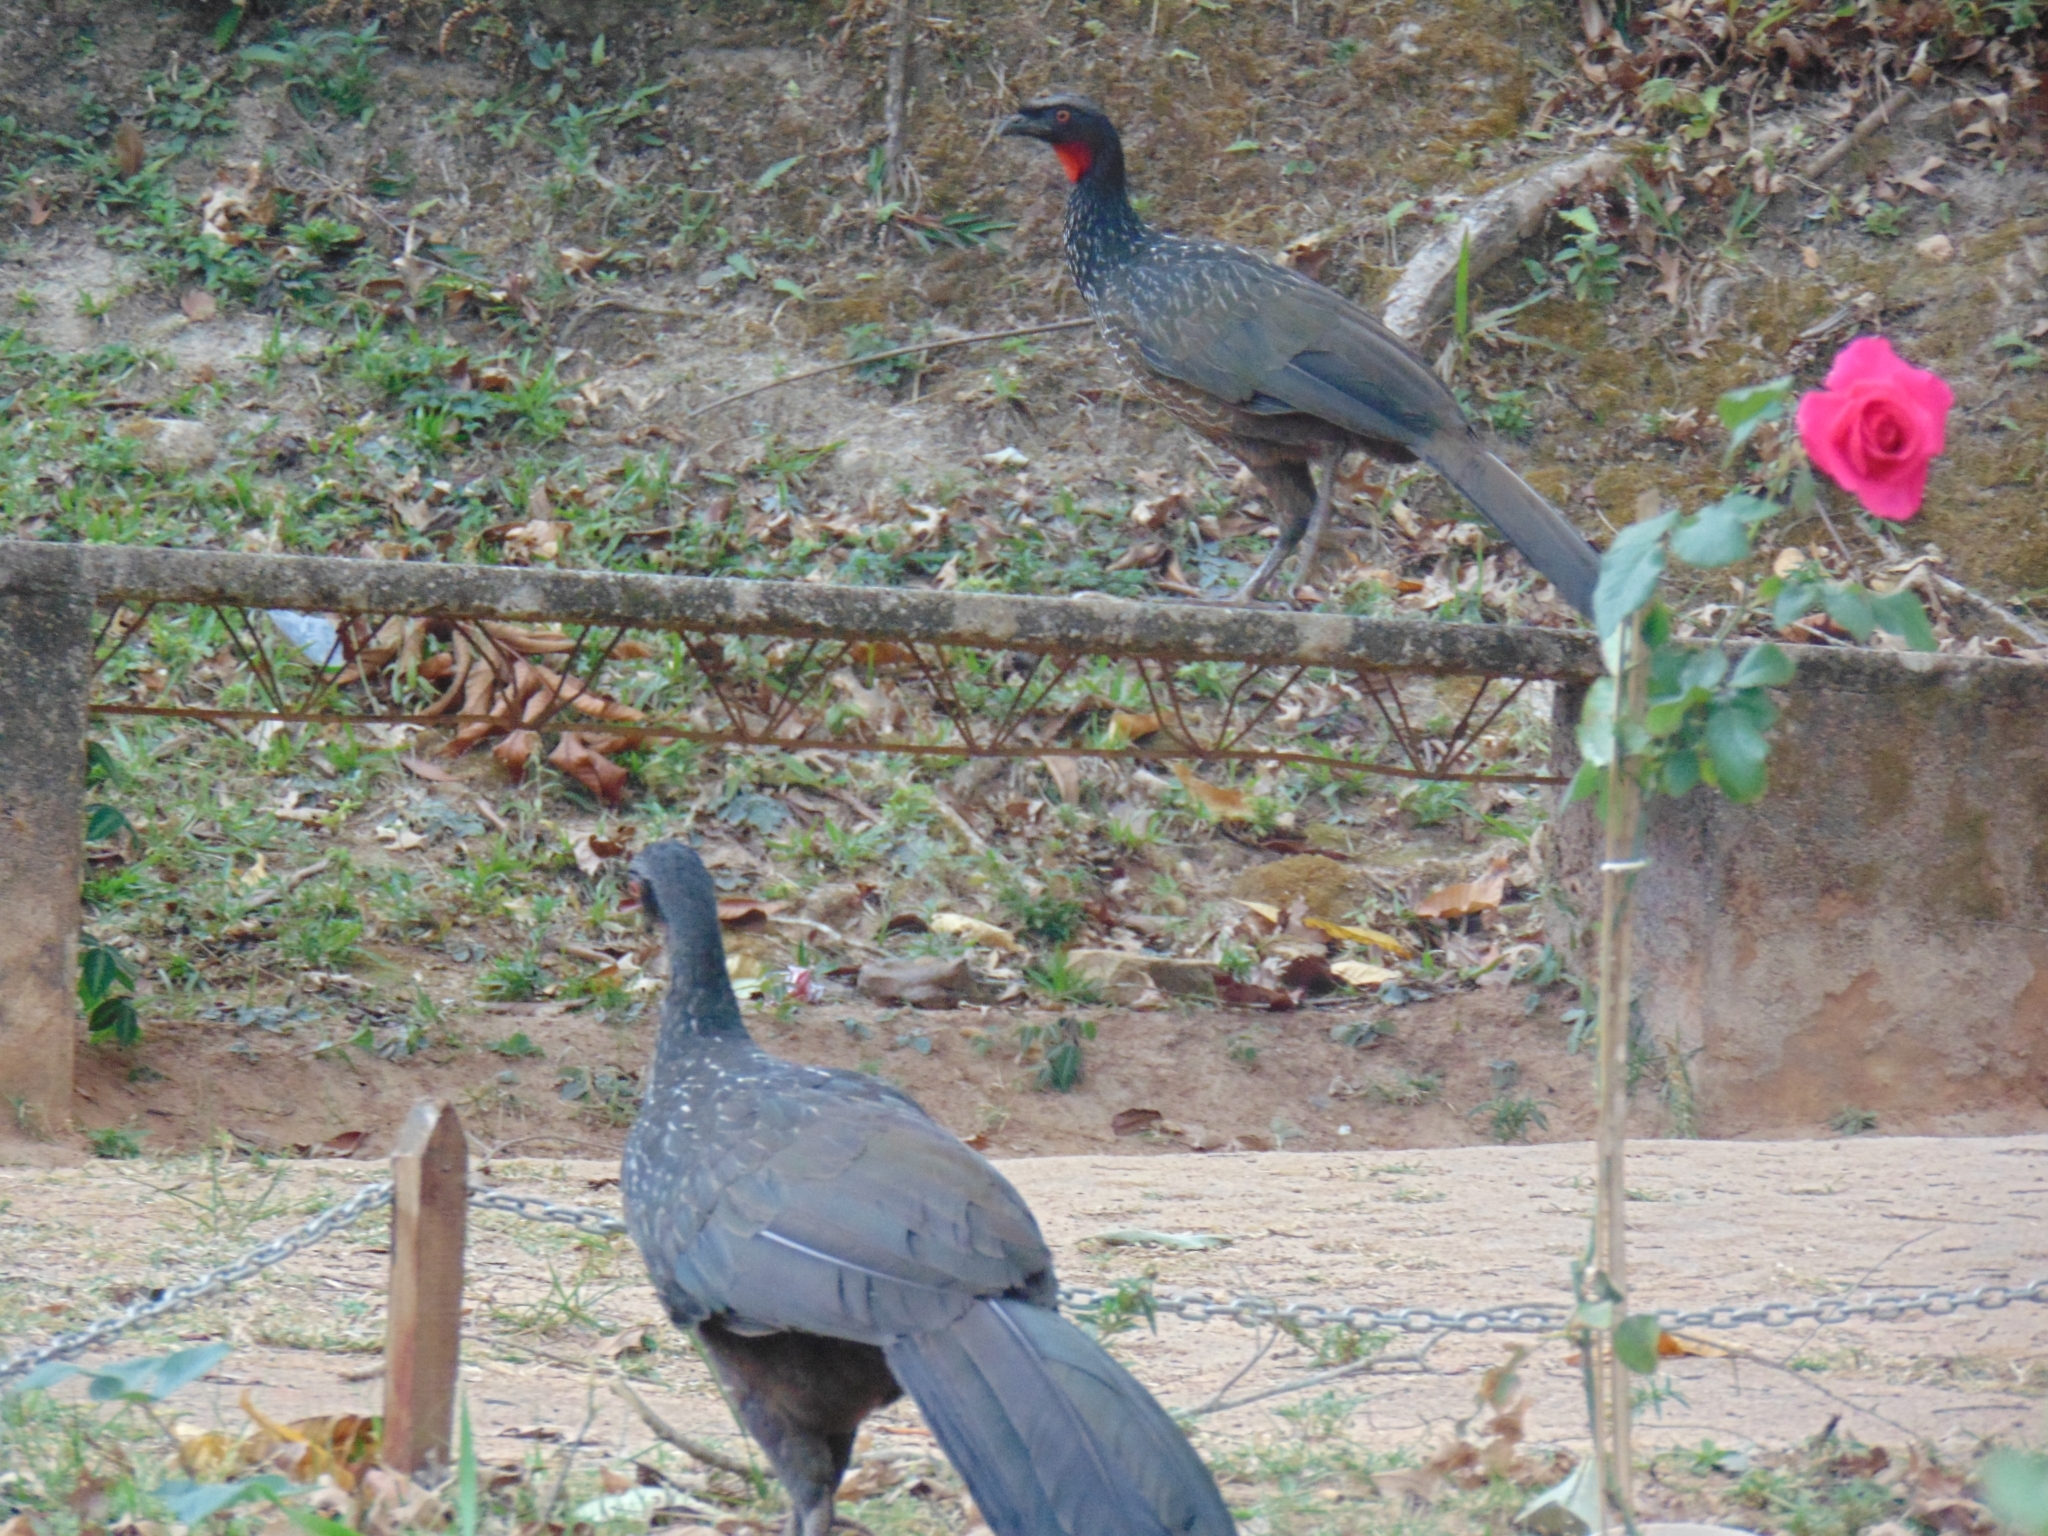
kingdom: Animalia
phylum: Chordata
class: Aves
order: Galliformes
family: Cracidae
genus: Penelope
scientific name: Penelope obscura
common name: Dusky-legged guan
